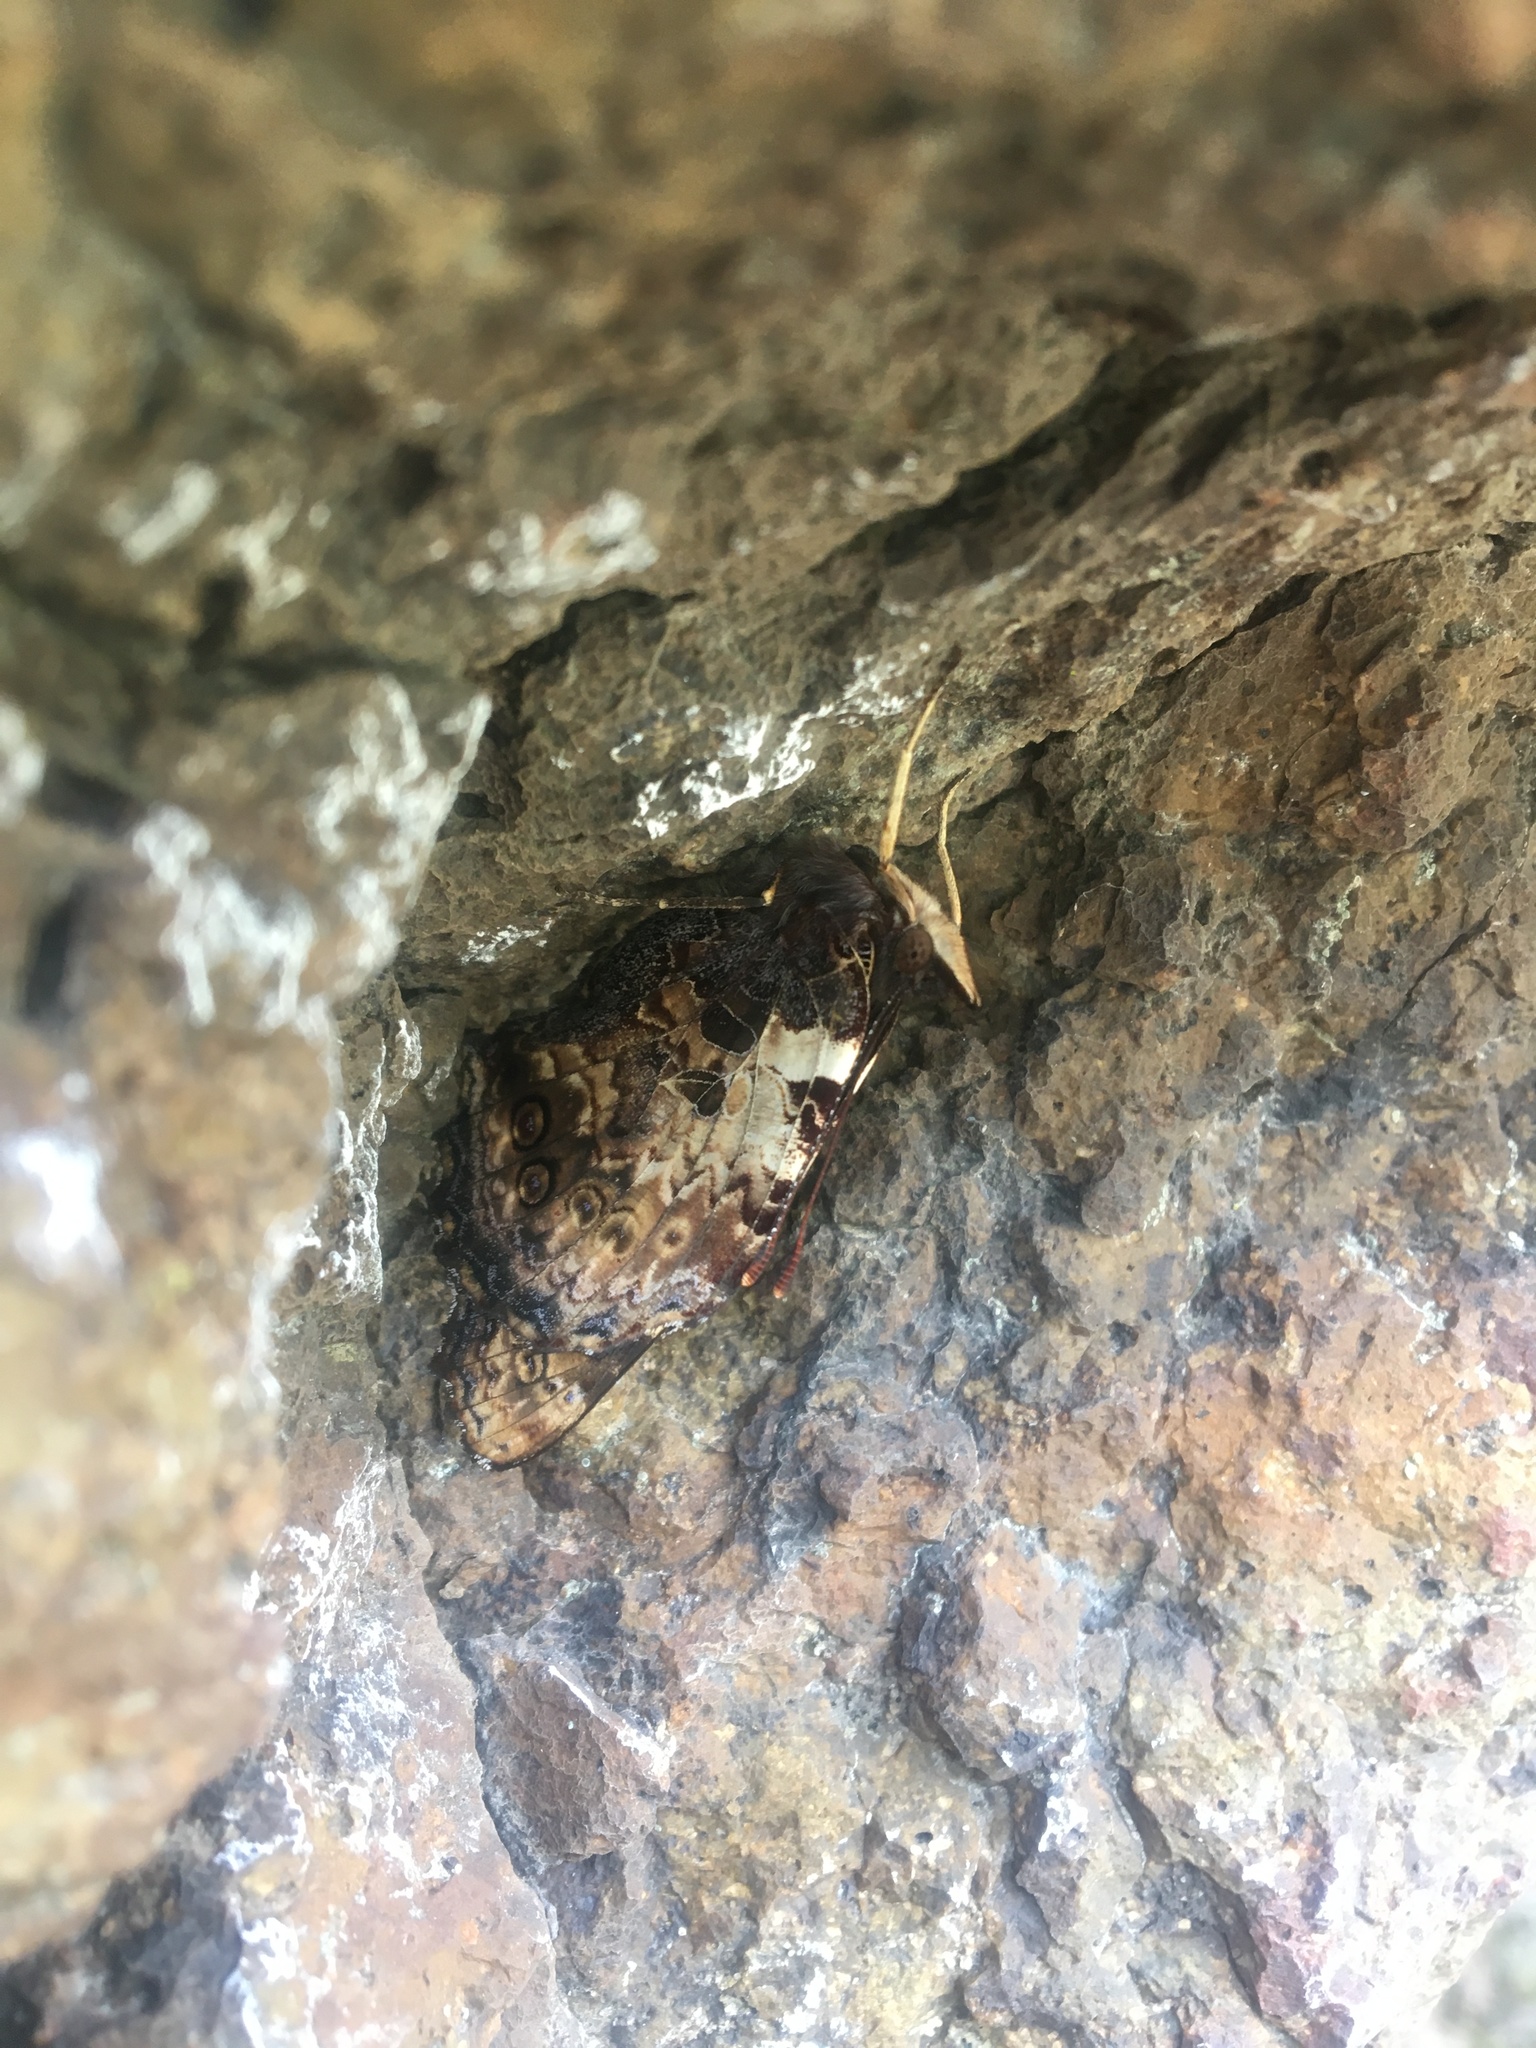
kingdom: Animalia
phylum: Arthropoda
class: Insecta
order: Lepidoptera
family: Nymphalidae
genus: Vanessa
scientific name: Vanessa gonerilla
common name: New zealand red admiral
